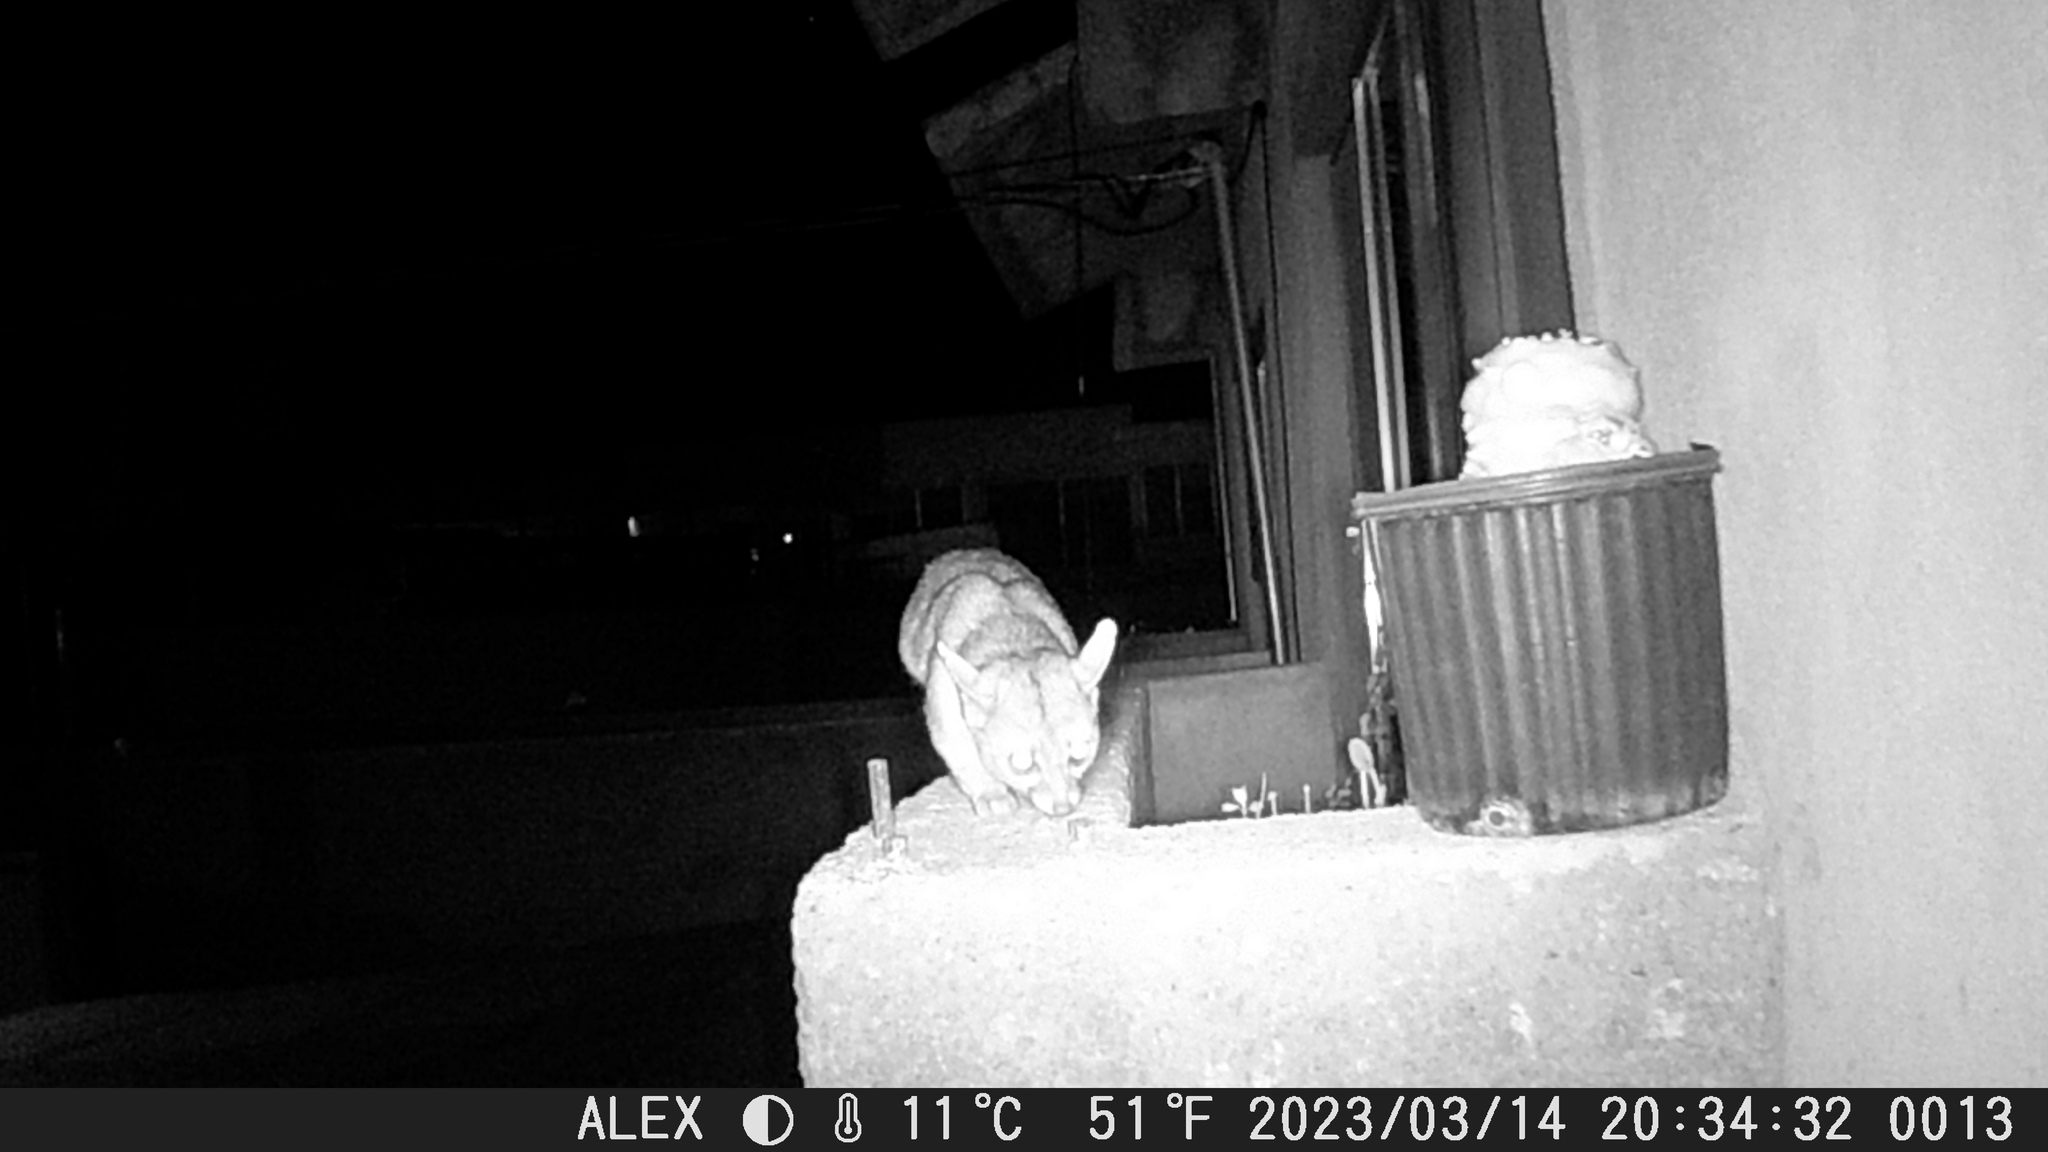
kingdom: Animalia
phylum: Chordata
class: Mammalia
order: Carnivora
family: Procyonidae
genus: Bassariscus
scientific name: Bassariscus astutus
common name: Ringtail
